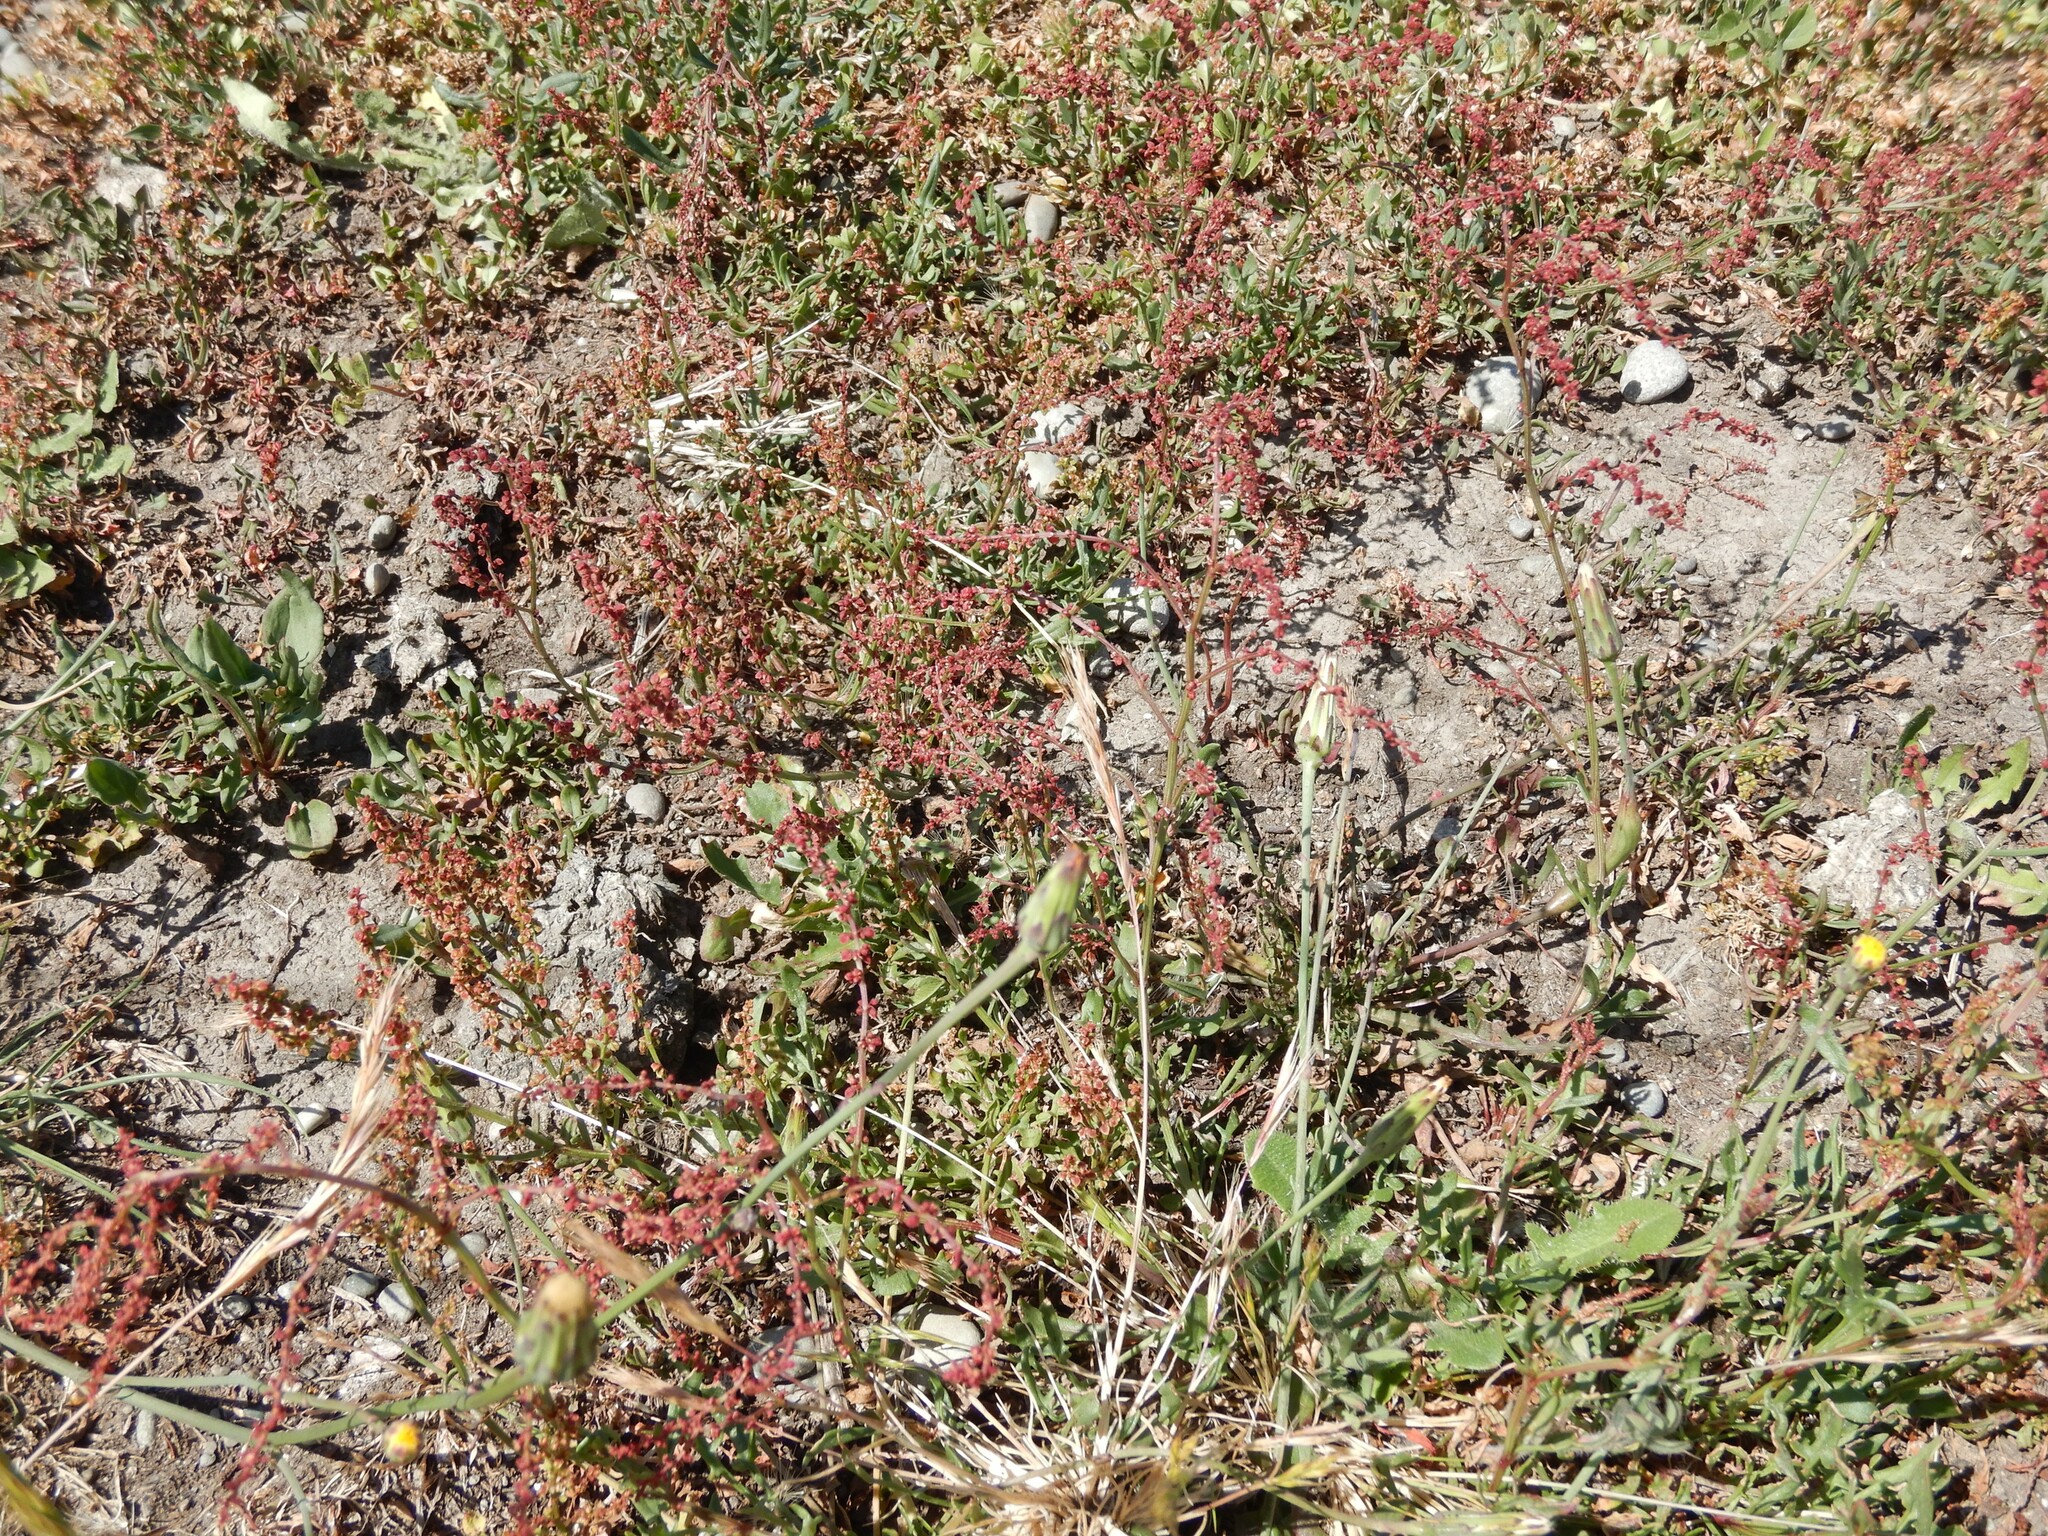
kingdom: Plantae
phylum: Tracheophyta
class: Magnoliopsida
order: Caryophyllales
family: Polygonaceae
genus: Rumex
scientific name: Rumex acetosella
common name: Common sheep sorrel
